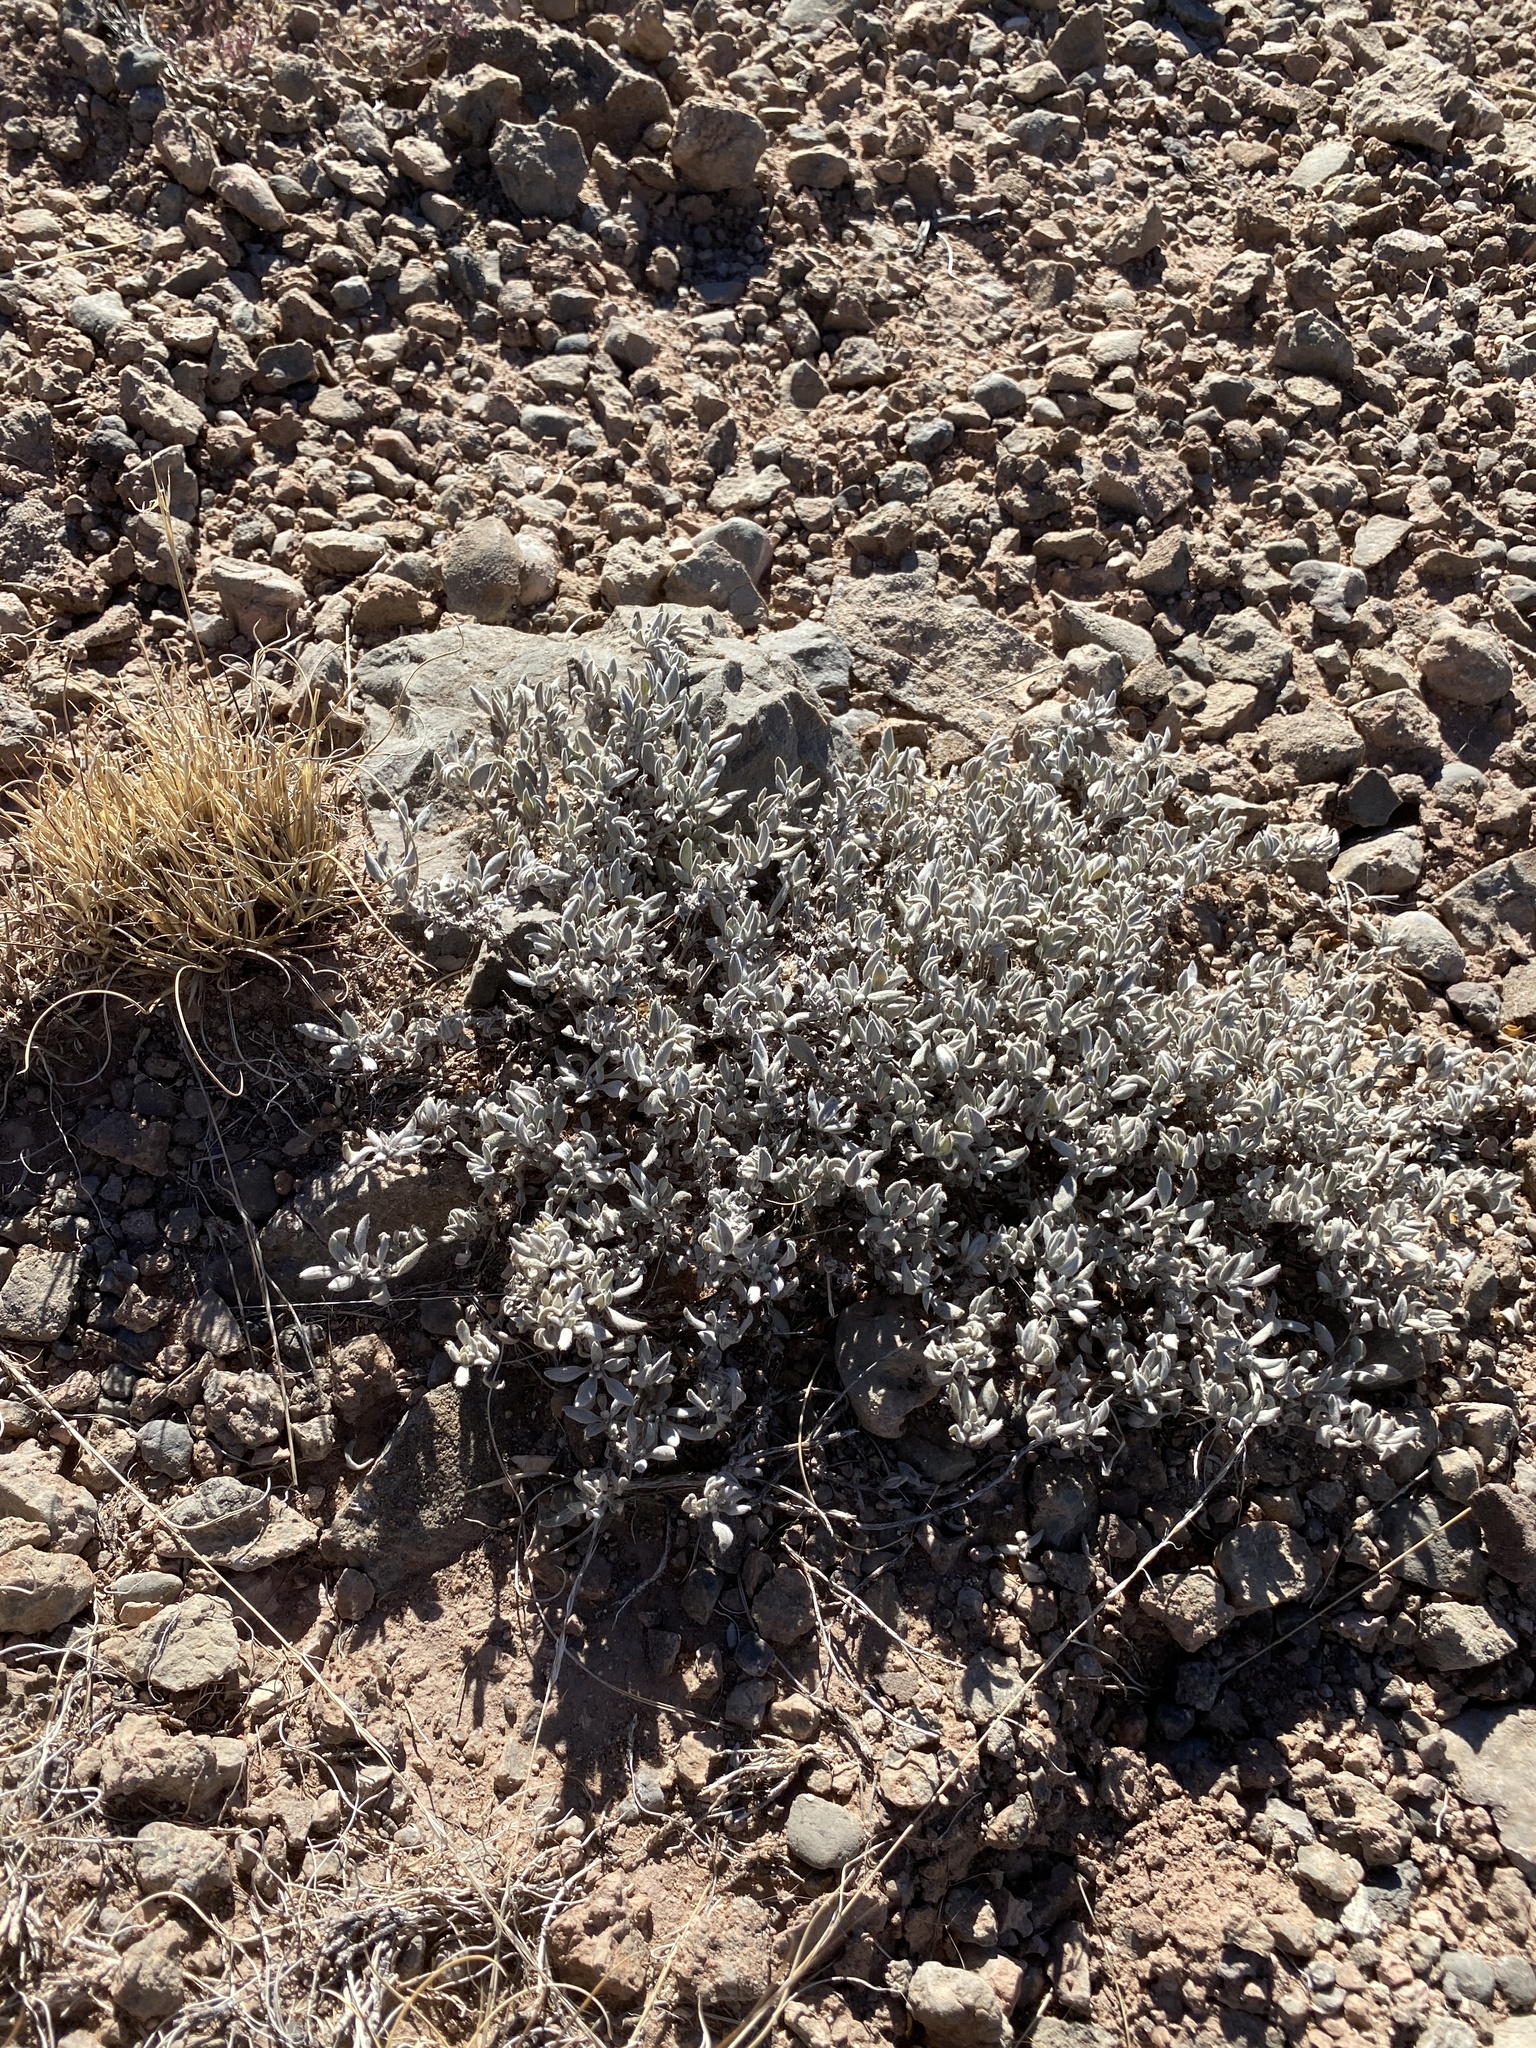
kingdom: Plantae
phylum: Tracheophyta
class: Magnoliopsida
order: Boraginales
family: Ehretiaceae
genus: Tiquilia
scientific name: Tiquilia canescens
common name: Hairy tiquilia
